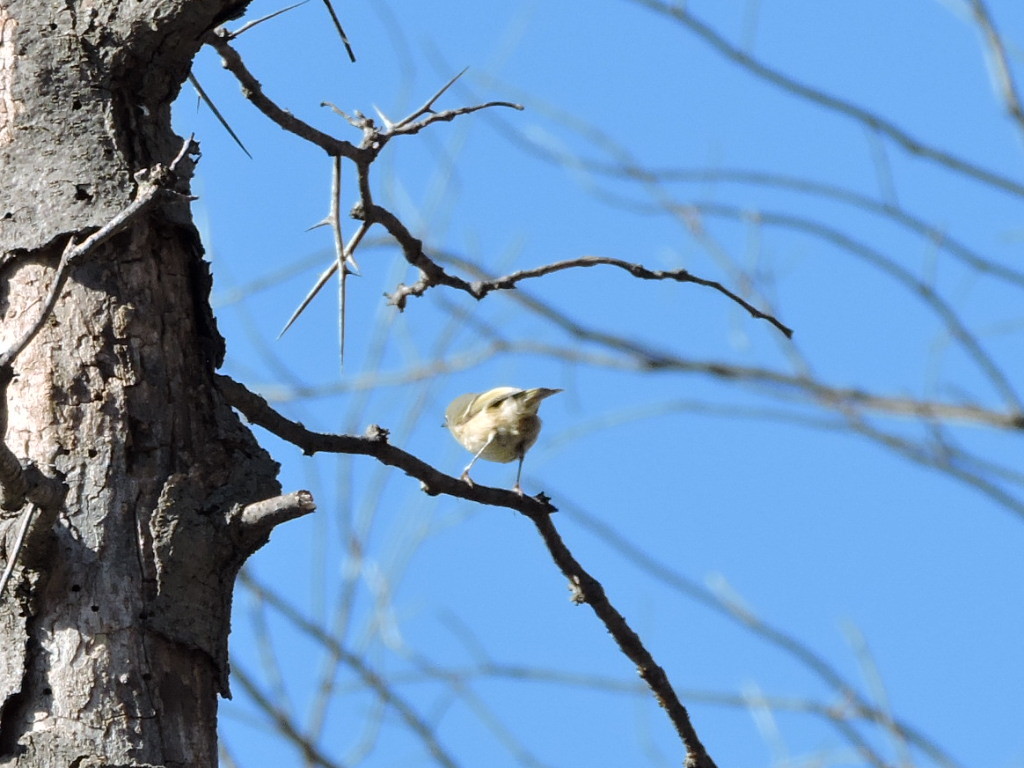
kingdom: Animalia
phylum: Chordata
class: Aves
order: Passeriformes
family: Regulidae
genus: Regulus
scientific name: Regulus calendula
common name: Ruby-crowned kinglet
